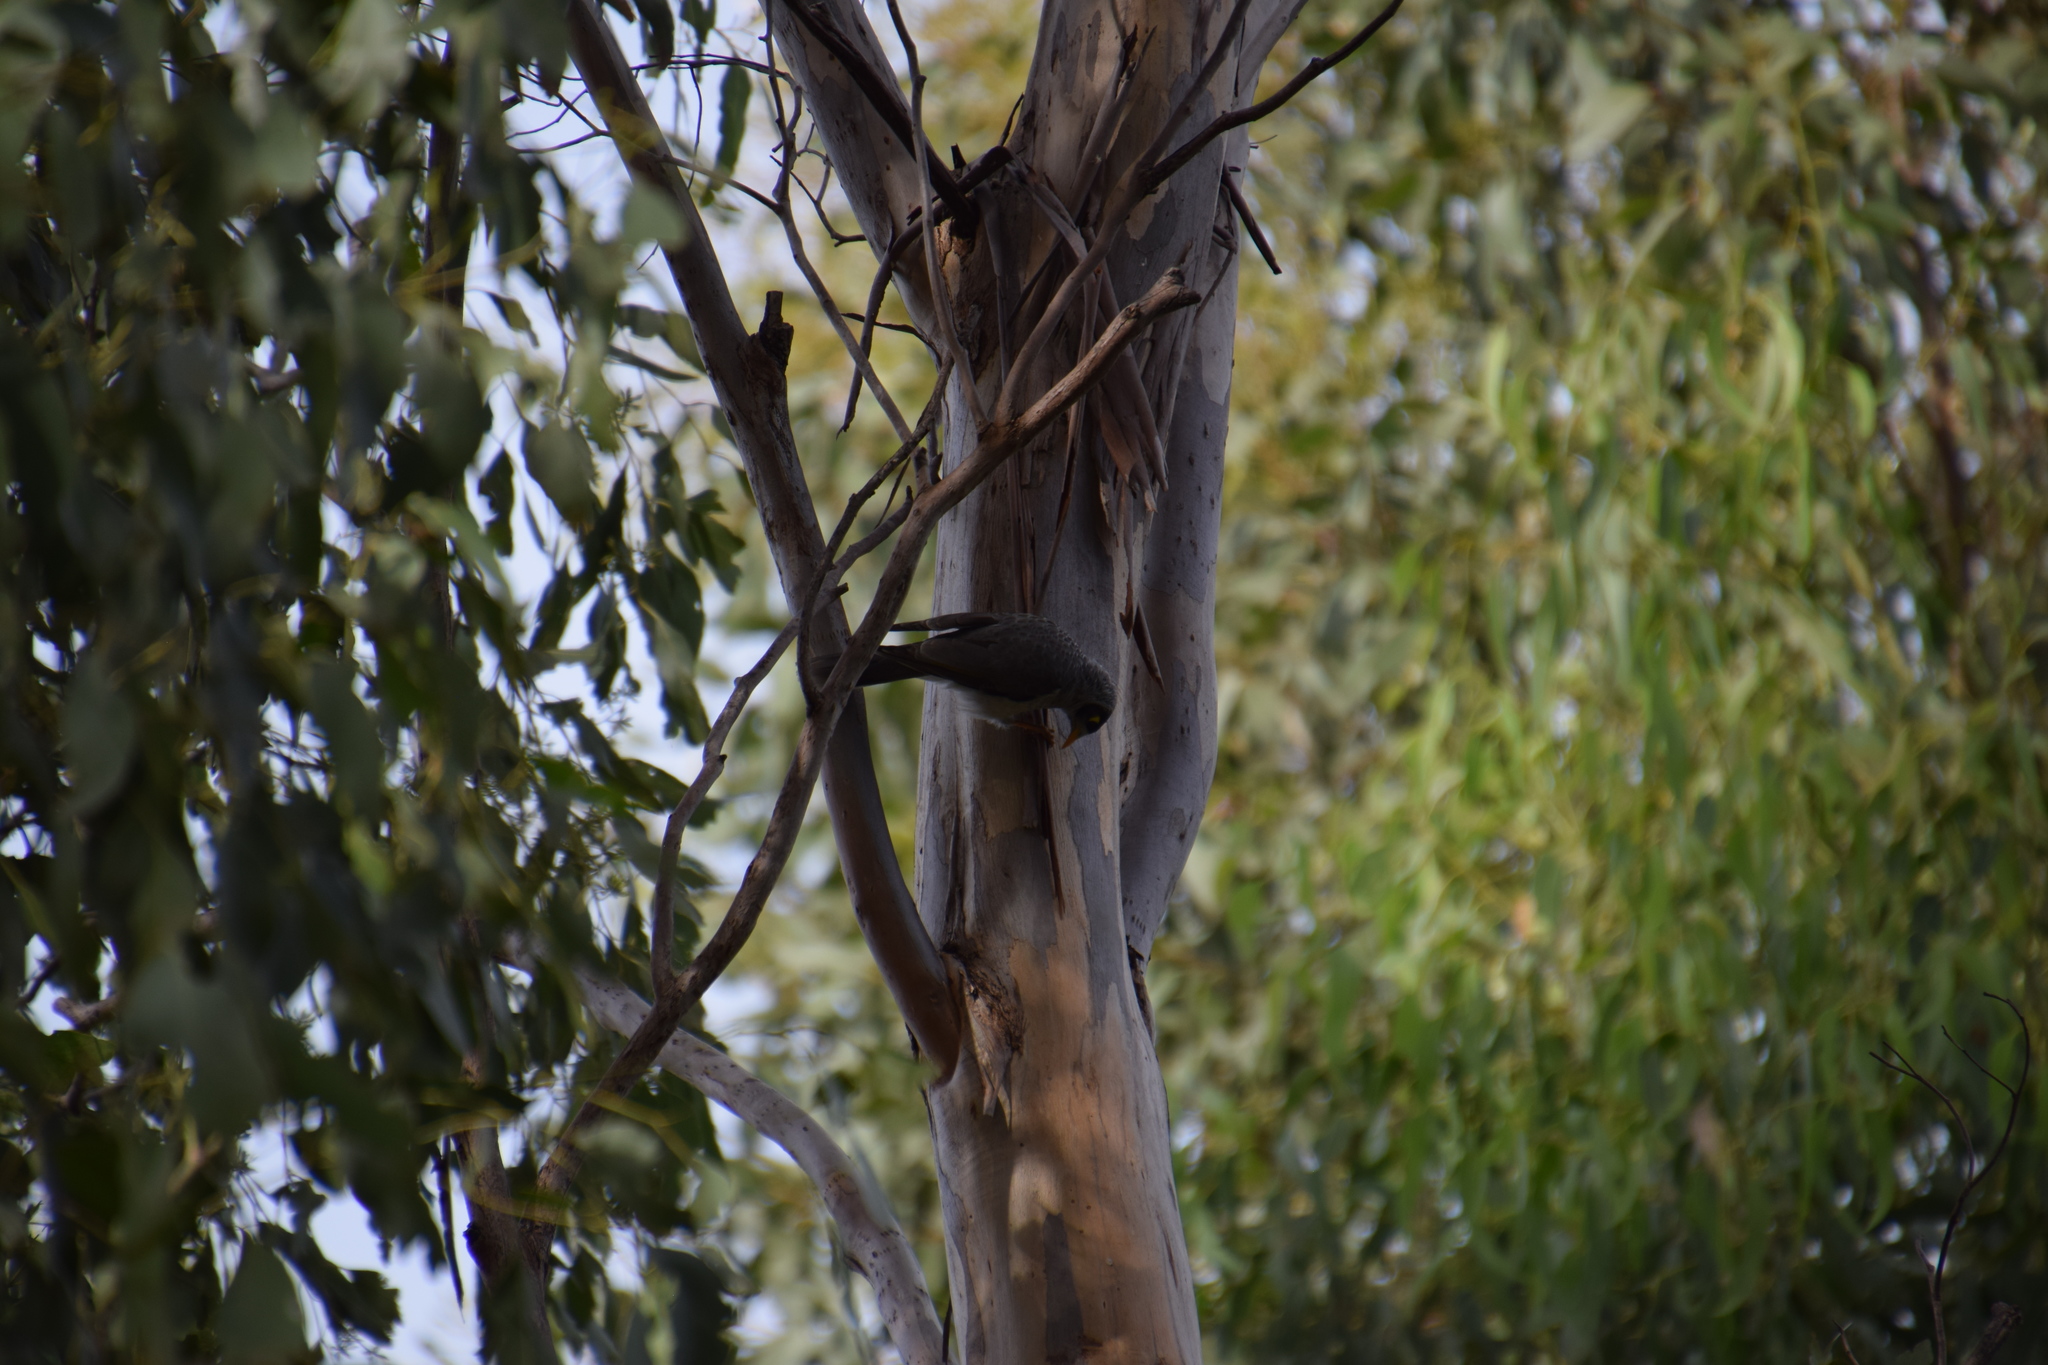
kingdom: Animalia
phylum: Chordata
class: Aves
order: Passeriformes
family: Meliphagidae
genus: Manorina
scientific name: Manorina melanocephala
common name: Noisy miner
